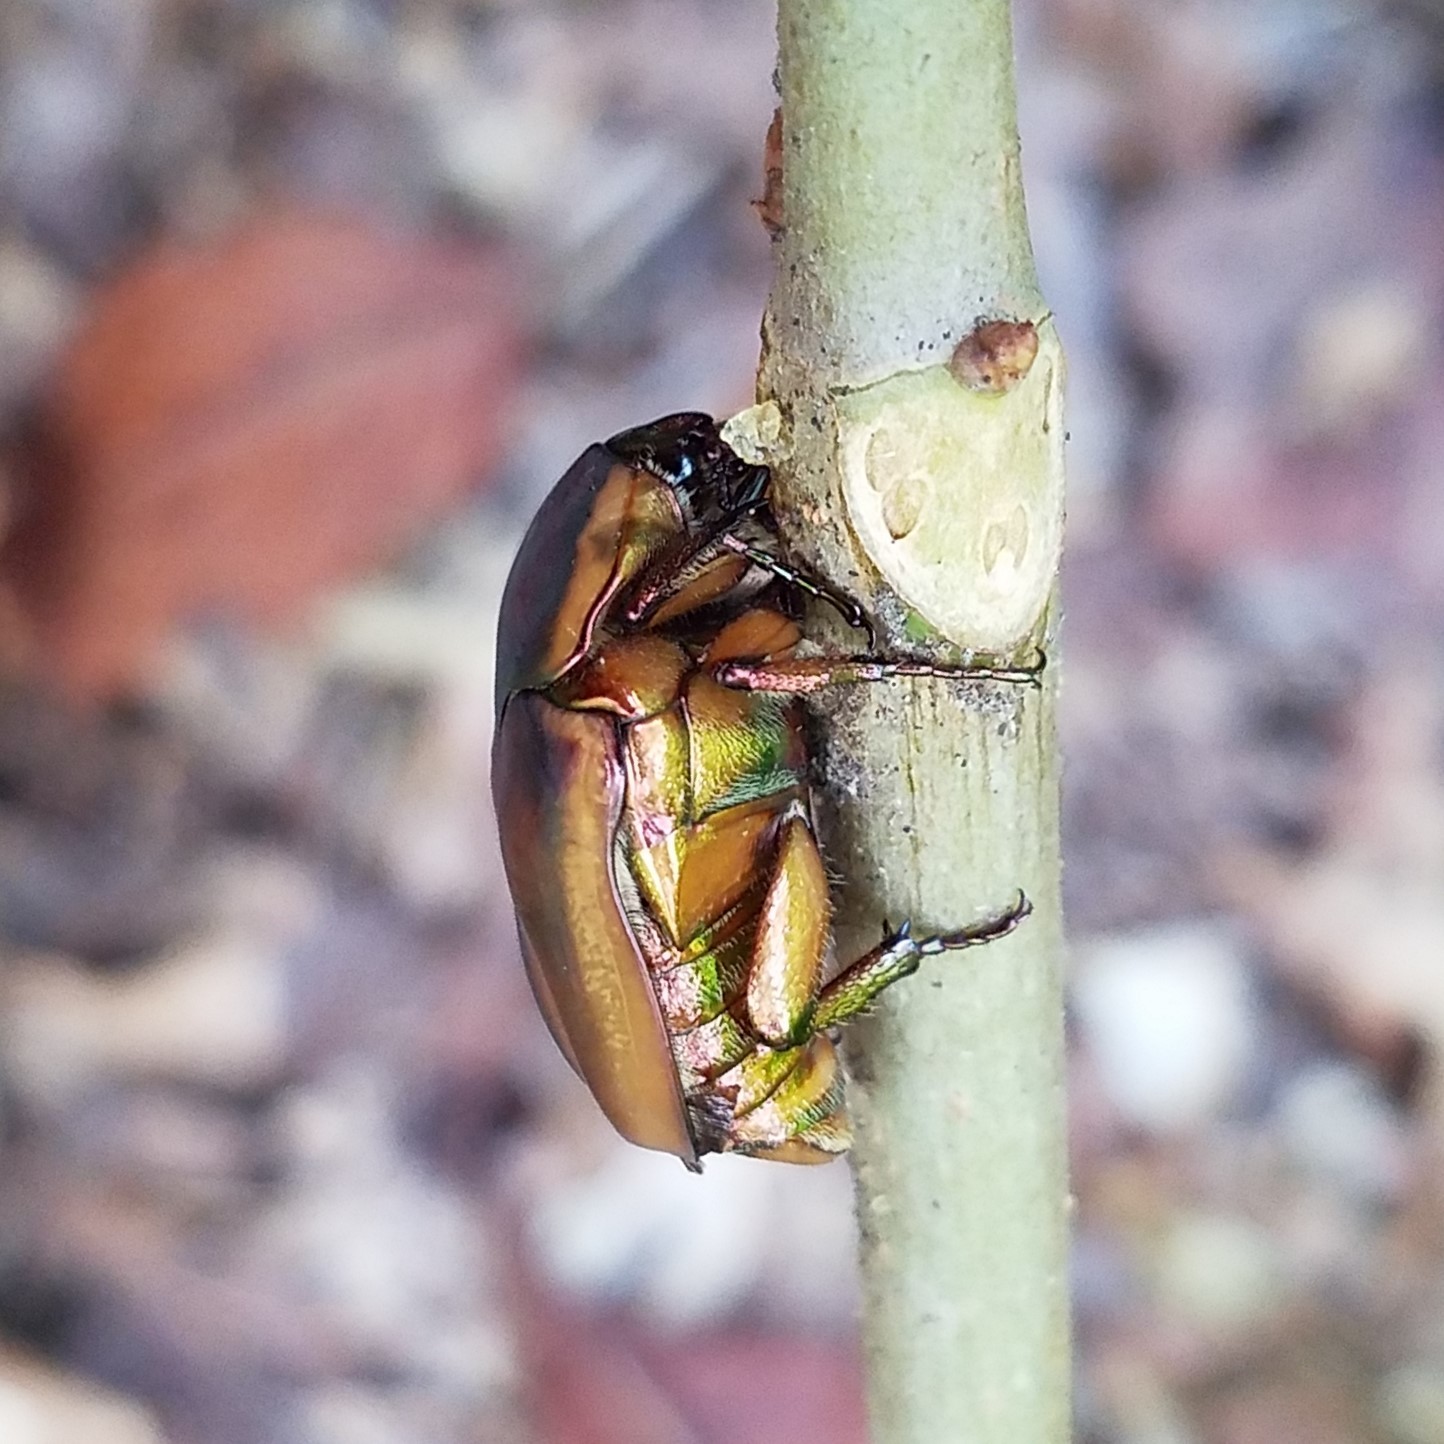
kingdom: Animalia
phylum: Arthropoda
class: Insecta
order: Coleoptera
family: Scarabaeidae
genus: Cotinis
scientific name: Cotinis nitida
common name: Common green june beetle
